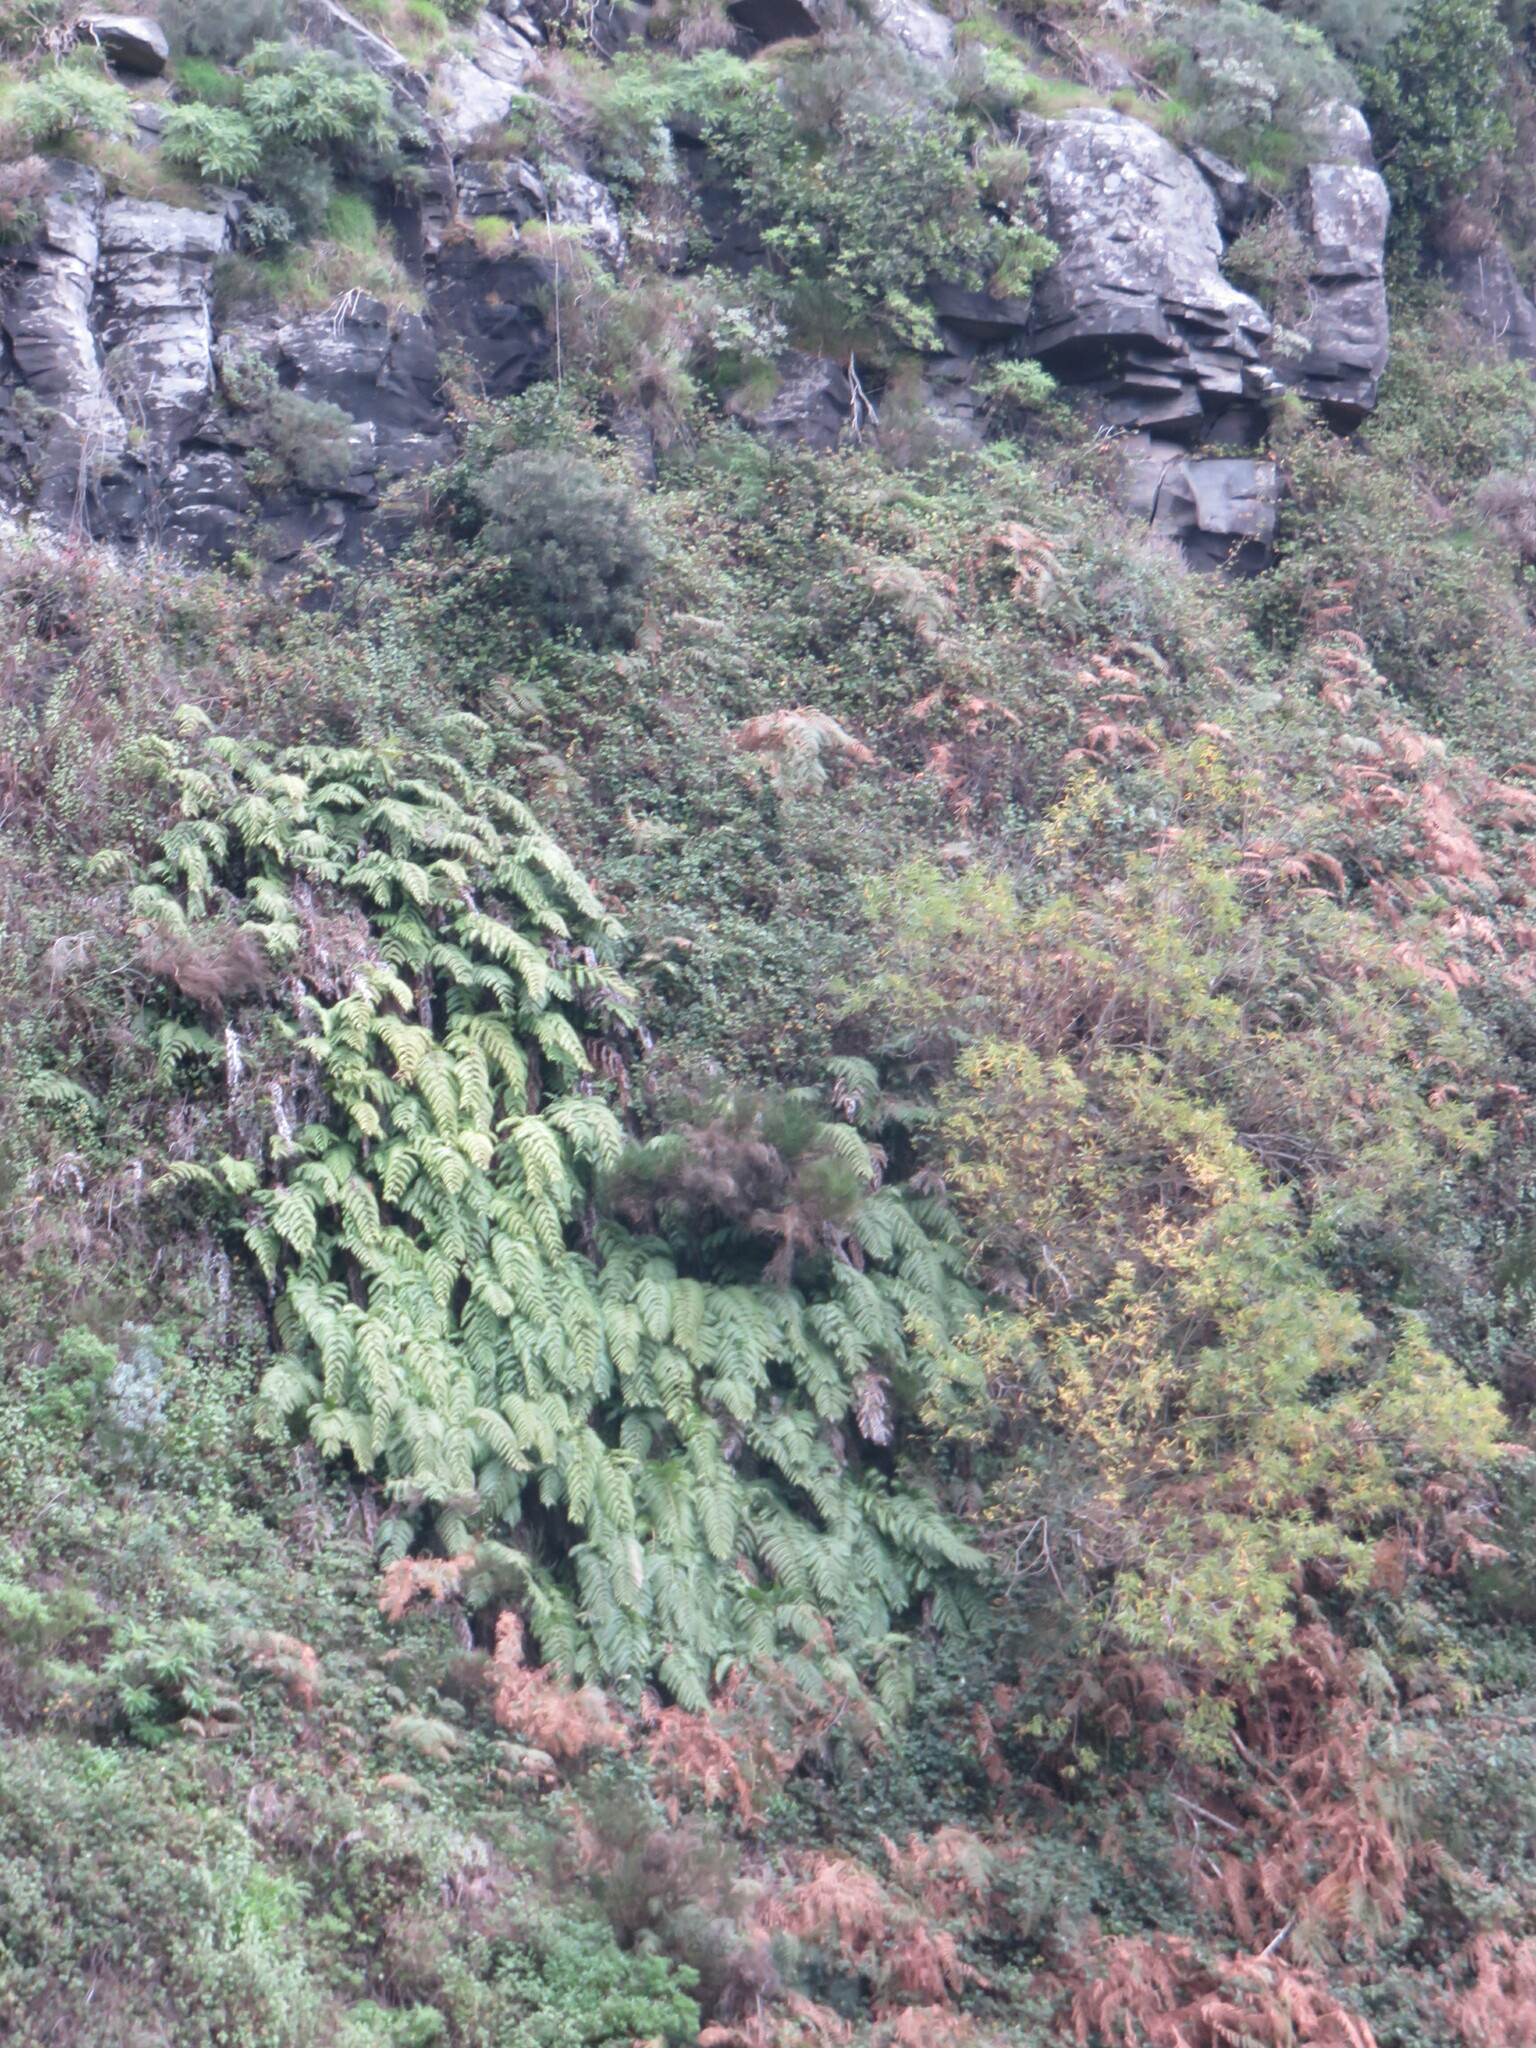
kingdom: Plantae
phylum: Tracheophyta
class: Polypodiopsida
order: Polypodiales
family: Blechnaceae
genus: Woodwardia
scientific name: Woodwardia radicans
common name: Rooting chainfern
